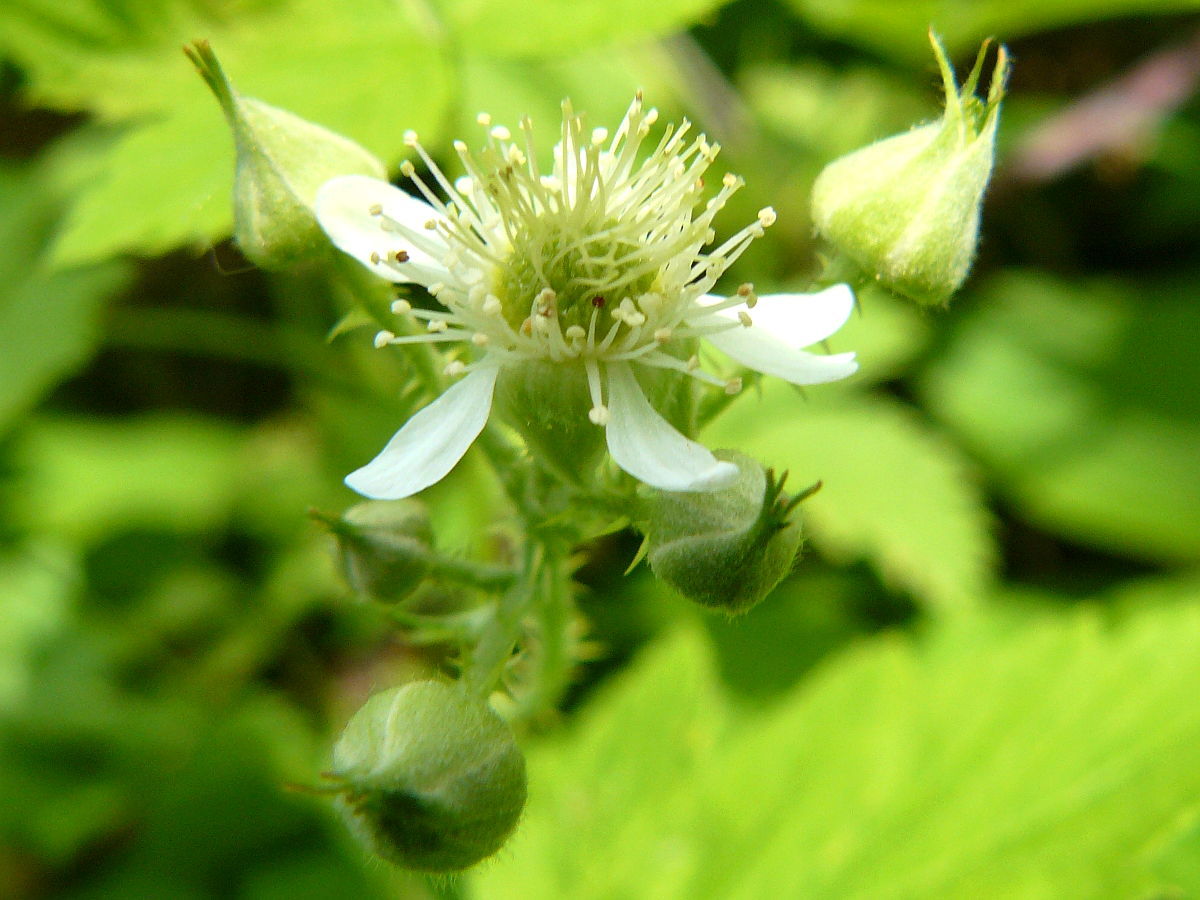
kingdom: Plantae
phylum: Tracheophyta
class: Magnoliopsida
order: Rosales
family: Rosaceae
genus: Rubus
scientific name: Rubus occidentalis
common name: Black raspberry
